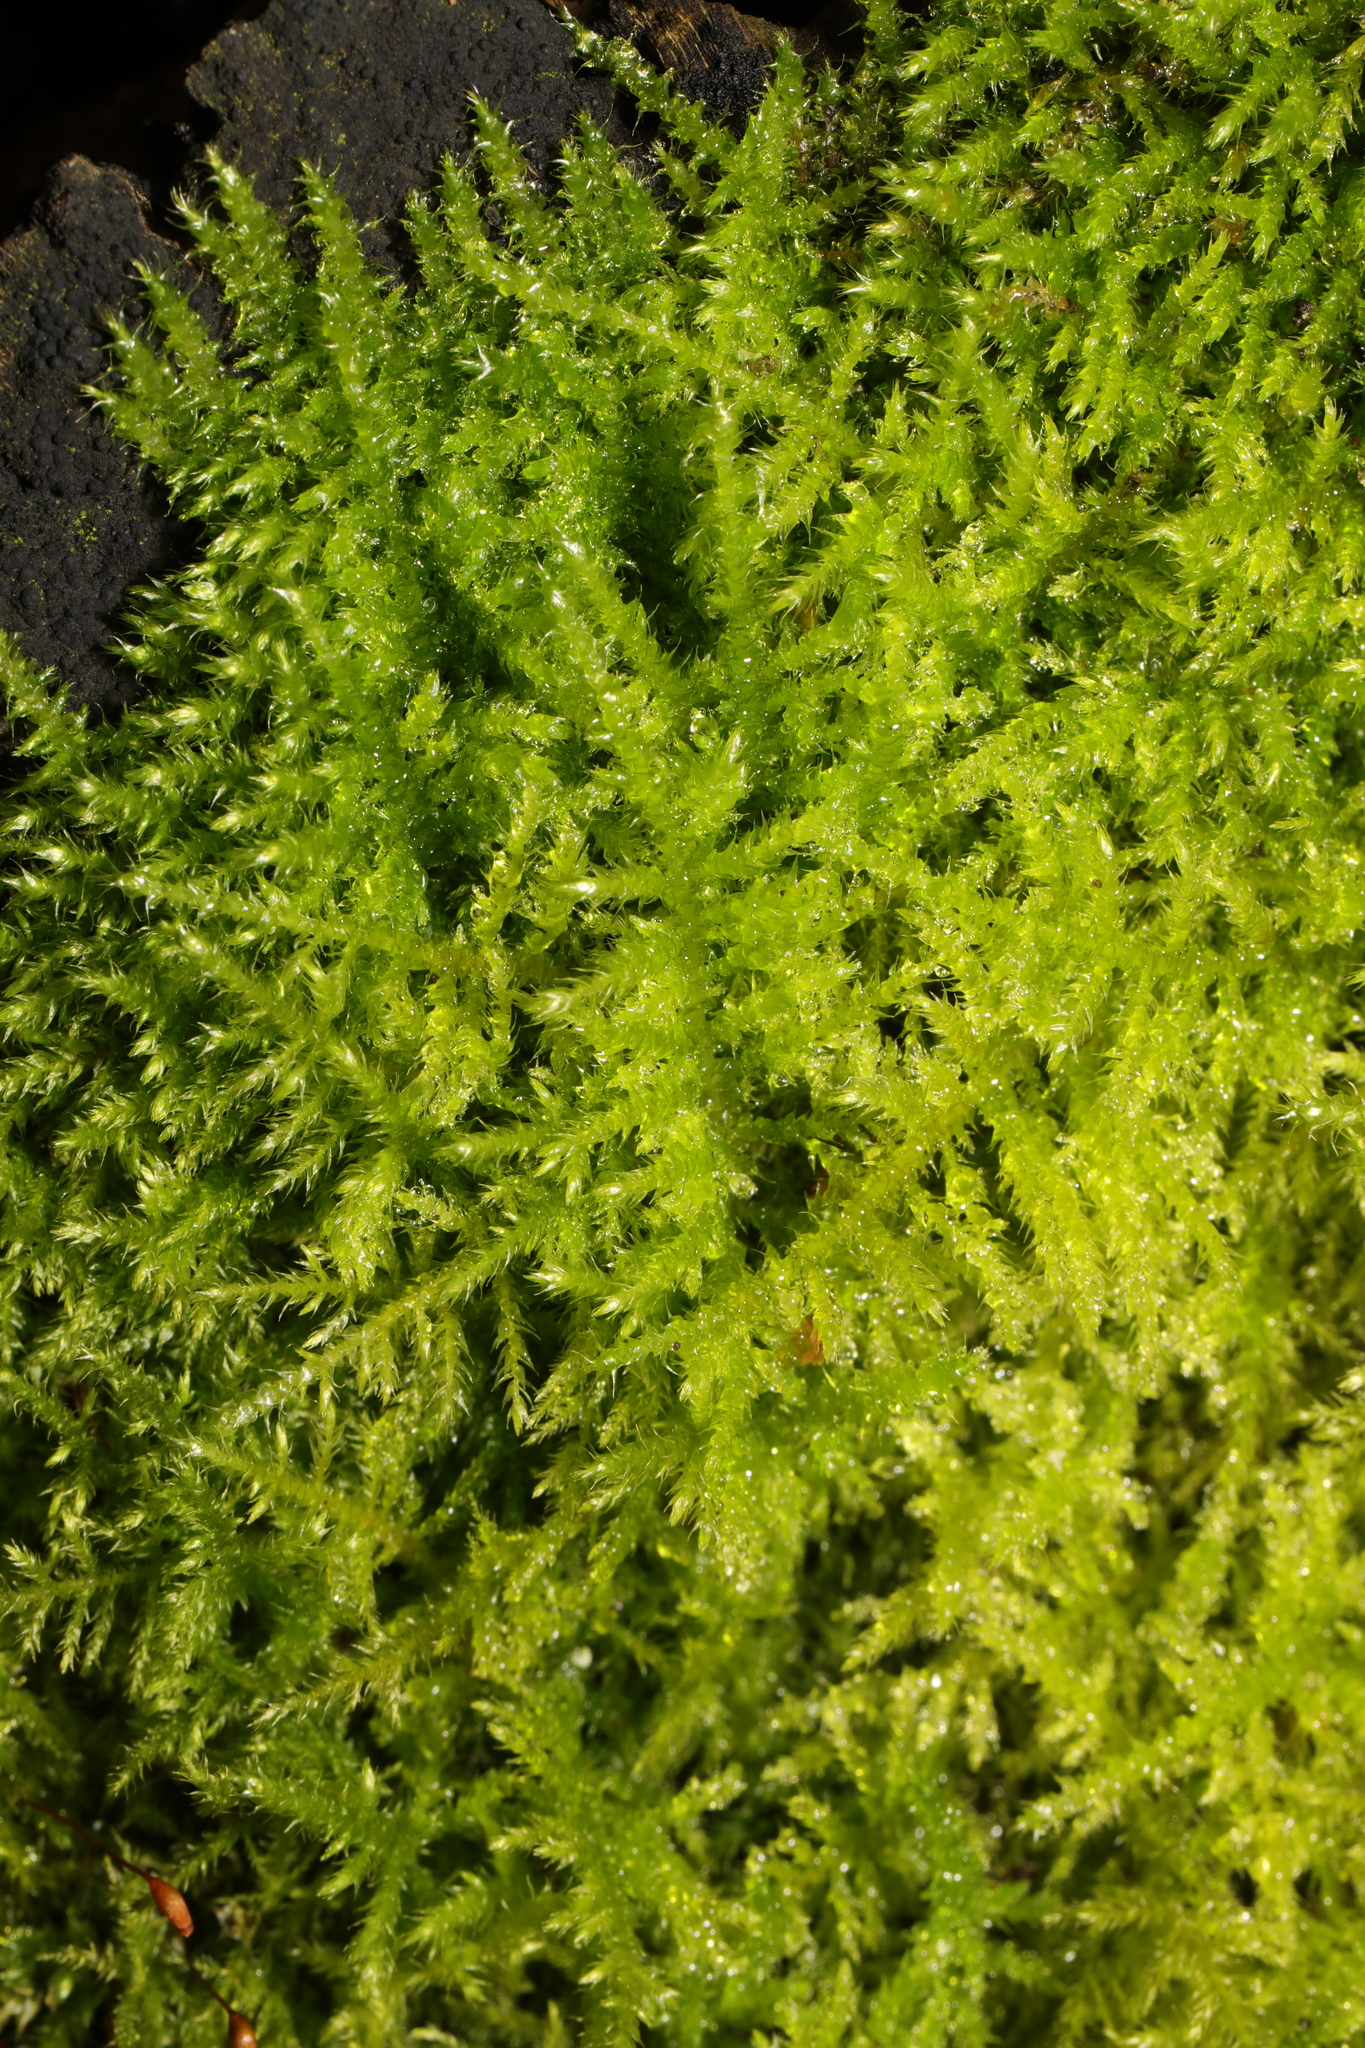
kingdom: Plantae
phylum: Bryophyta
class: Bryopsida
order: Hypnales
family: Brachytheciaceae
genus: Kindbergia
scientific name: Kindbergia praelonga
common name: Slender beaked moss
